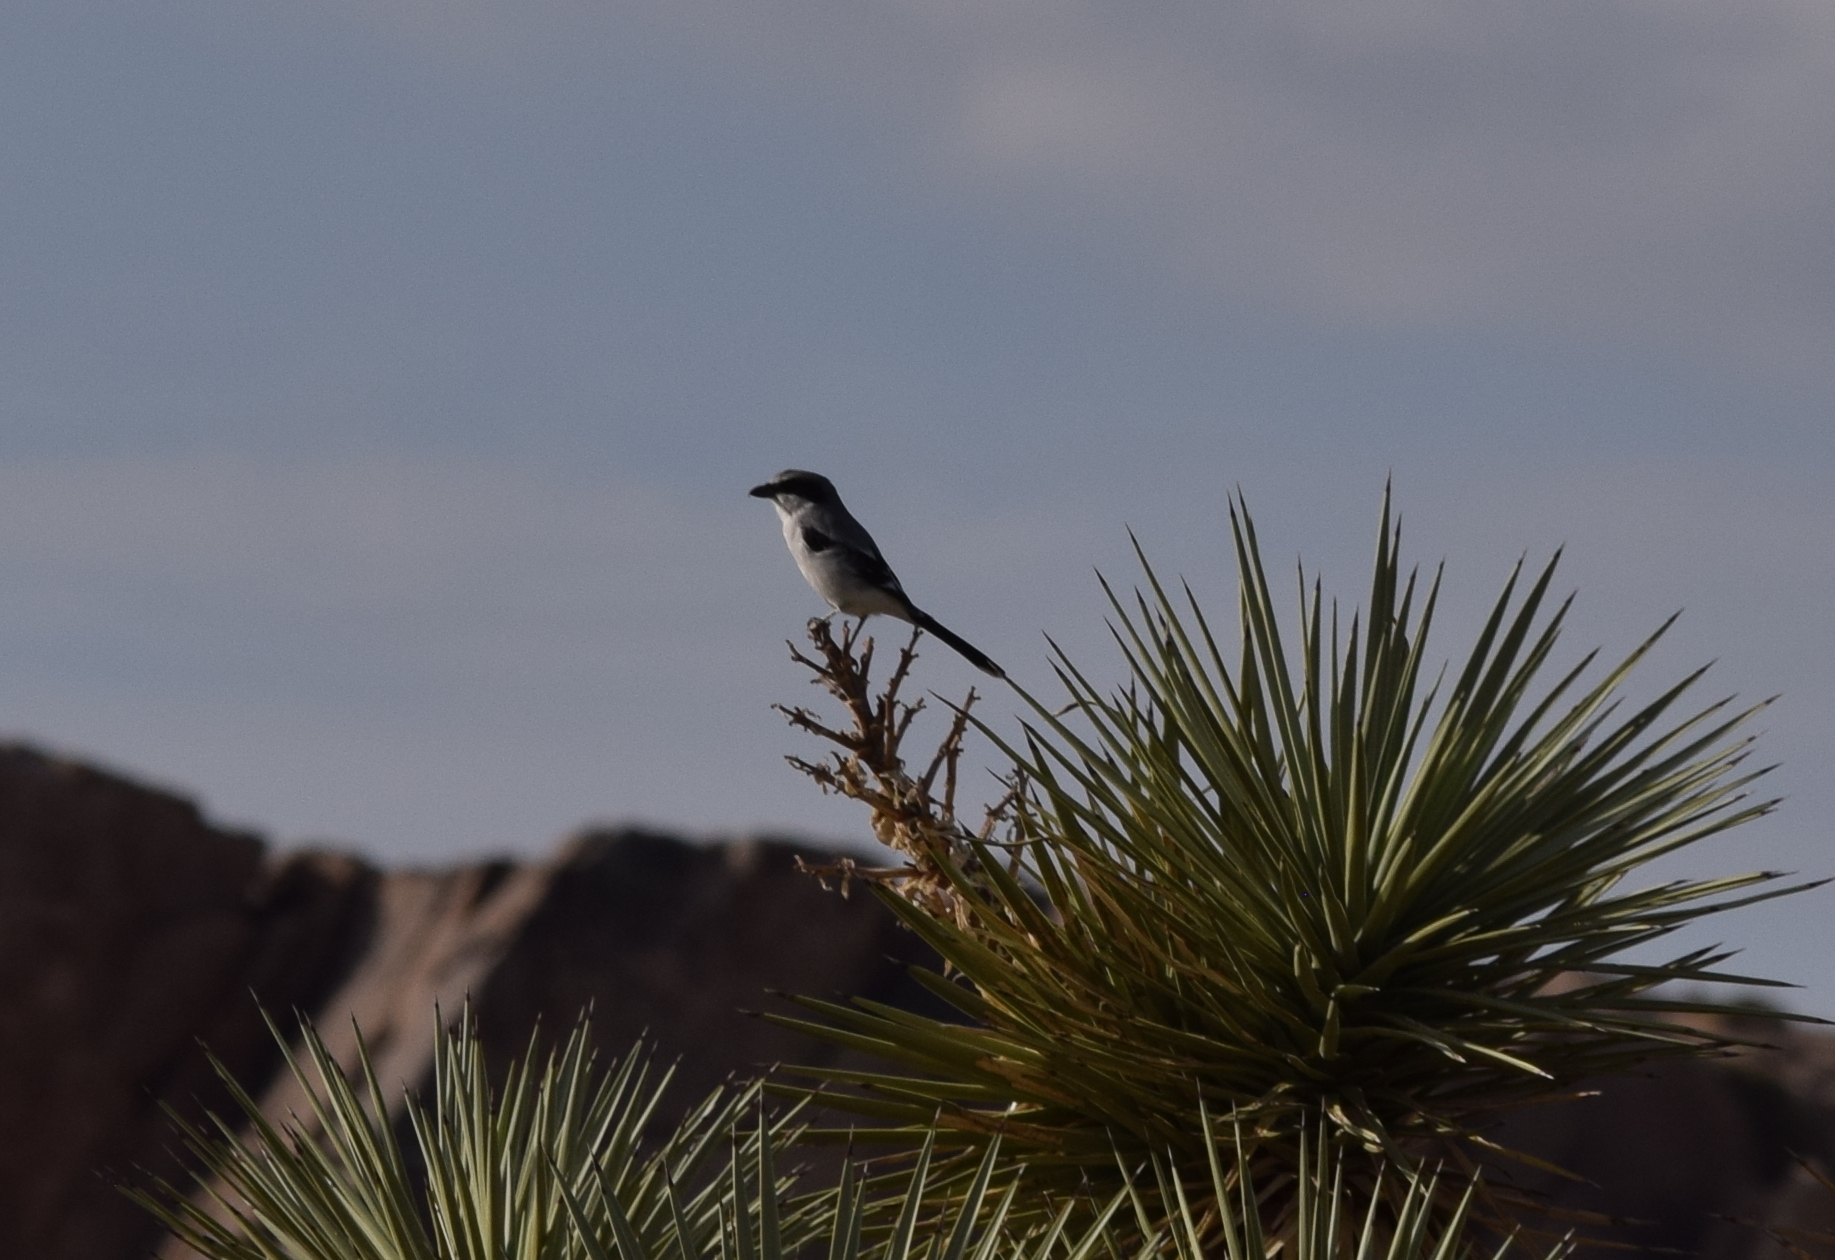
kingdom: Animalia
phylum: Chordata
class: Aves
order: Passeriformes
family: Laniidae
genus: Lanius
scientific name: Lanius ludovicianus
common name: Loggerhead shrike
